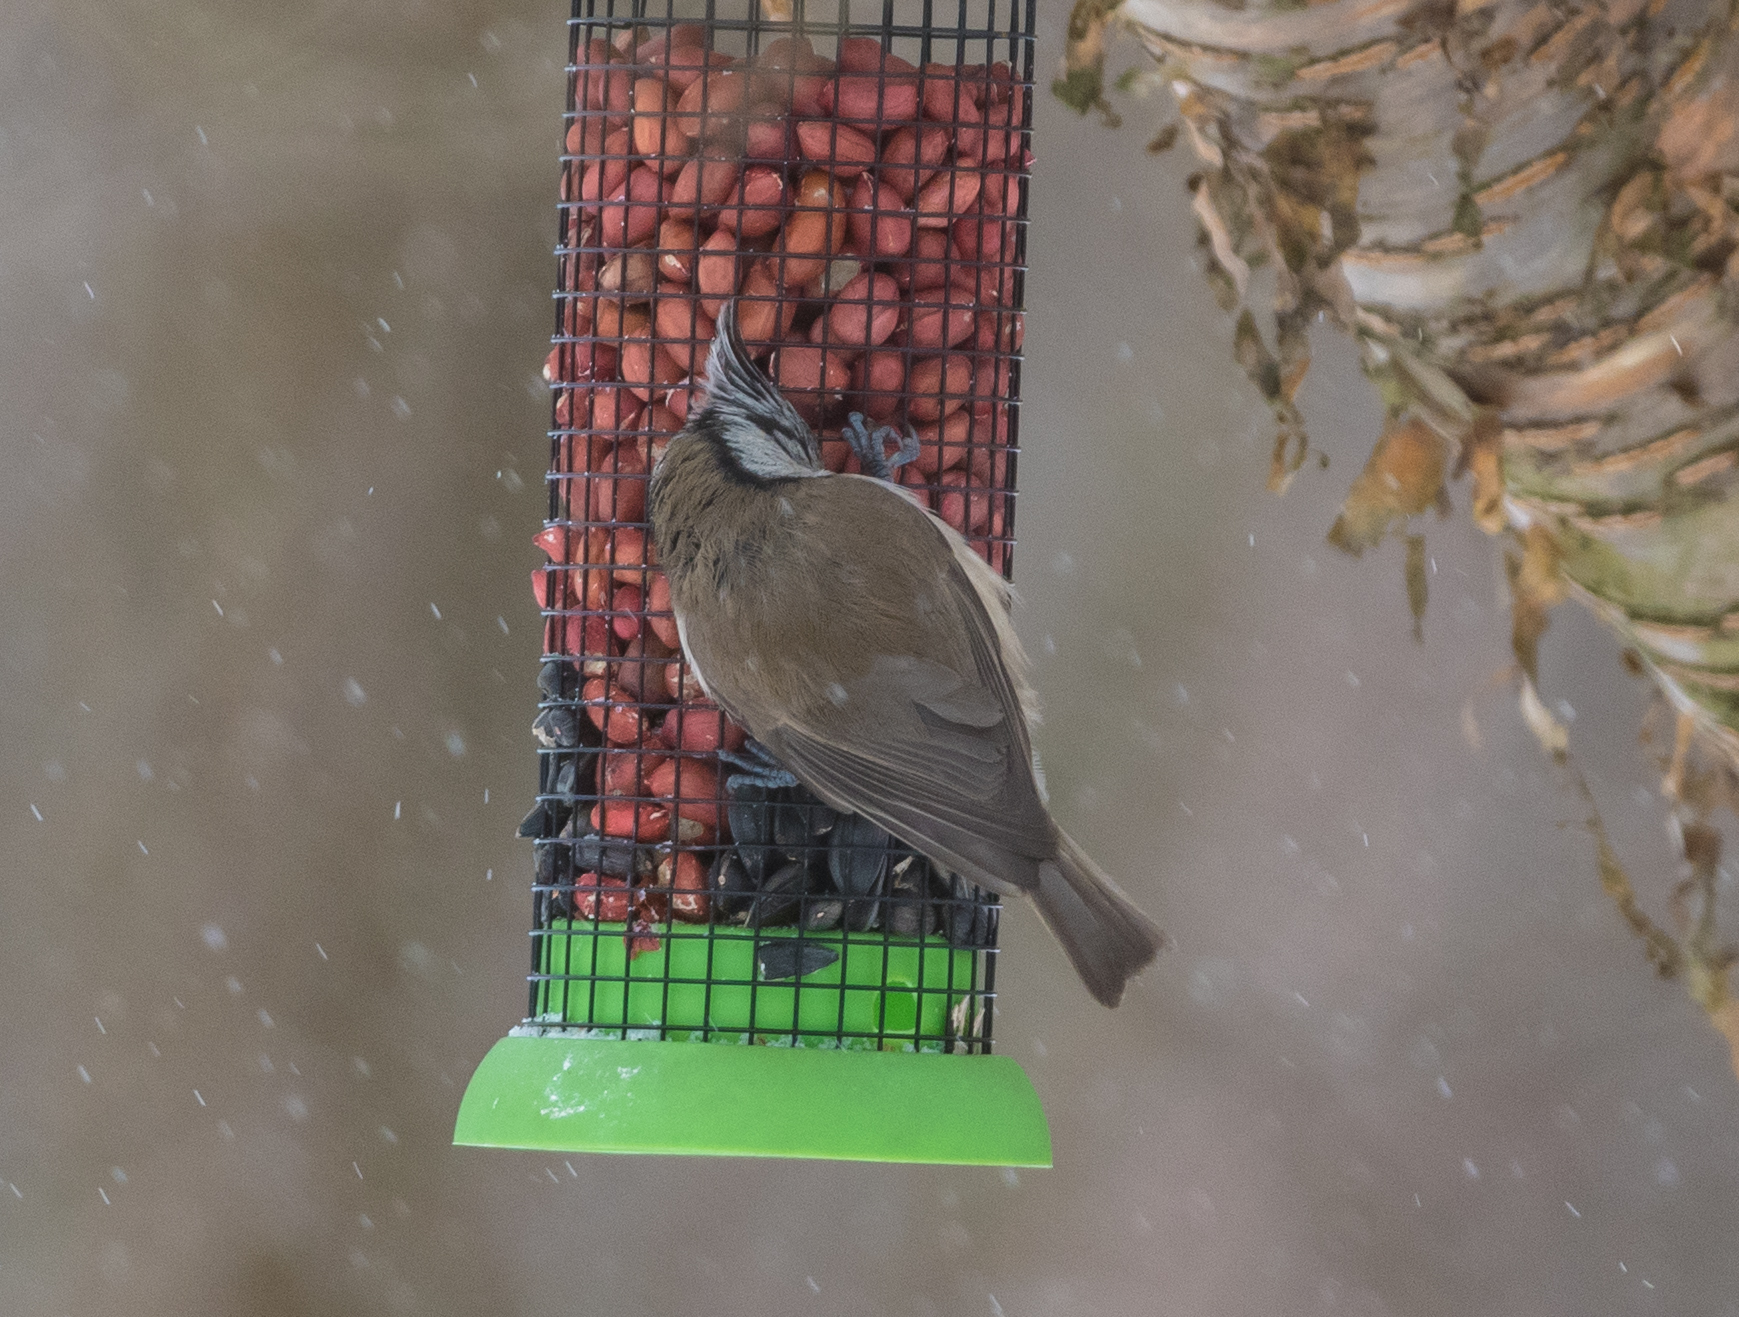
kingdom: Animalia
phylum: Chordata
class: Aves
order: Passeriformes
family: Paridae
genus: Lophophanes
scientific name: Lophophanes cristatus
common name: European crested tit
